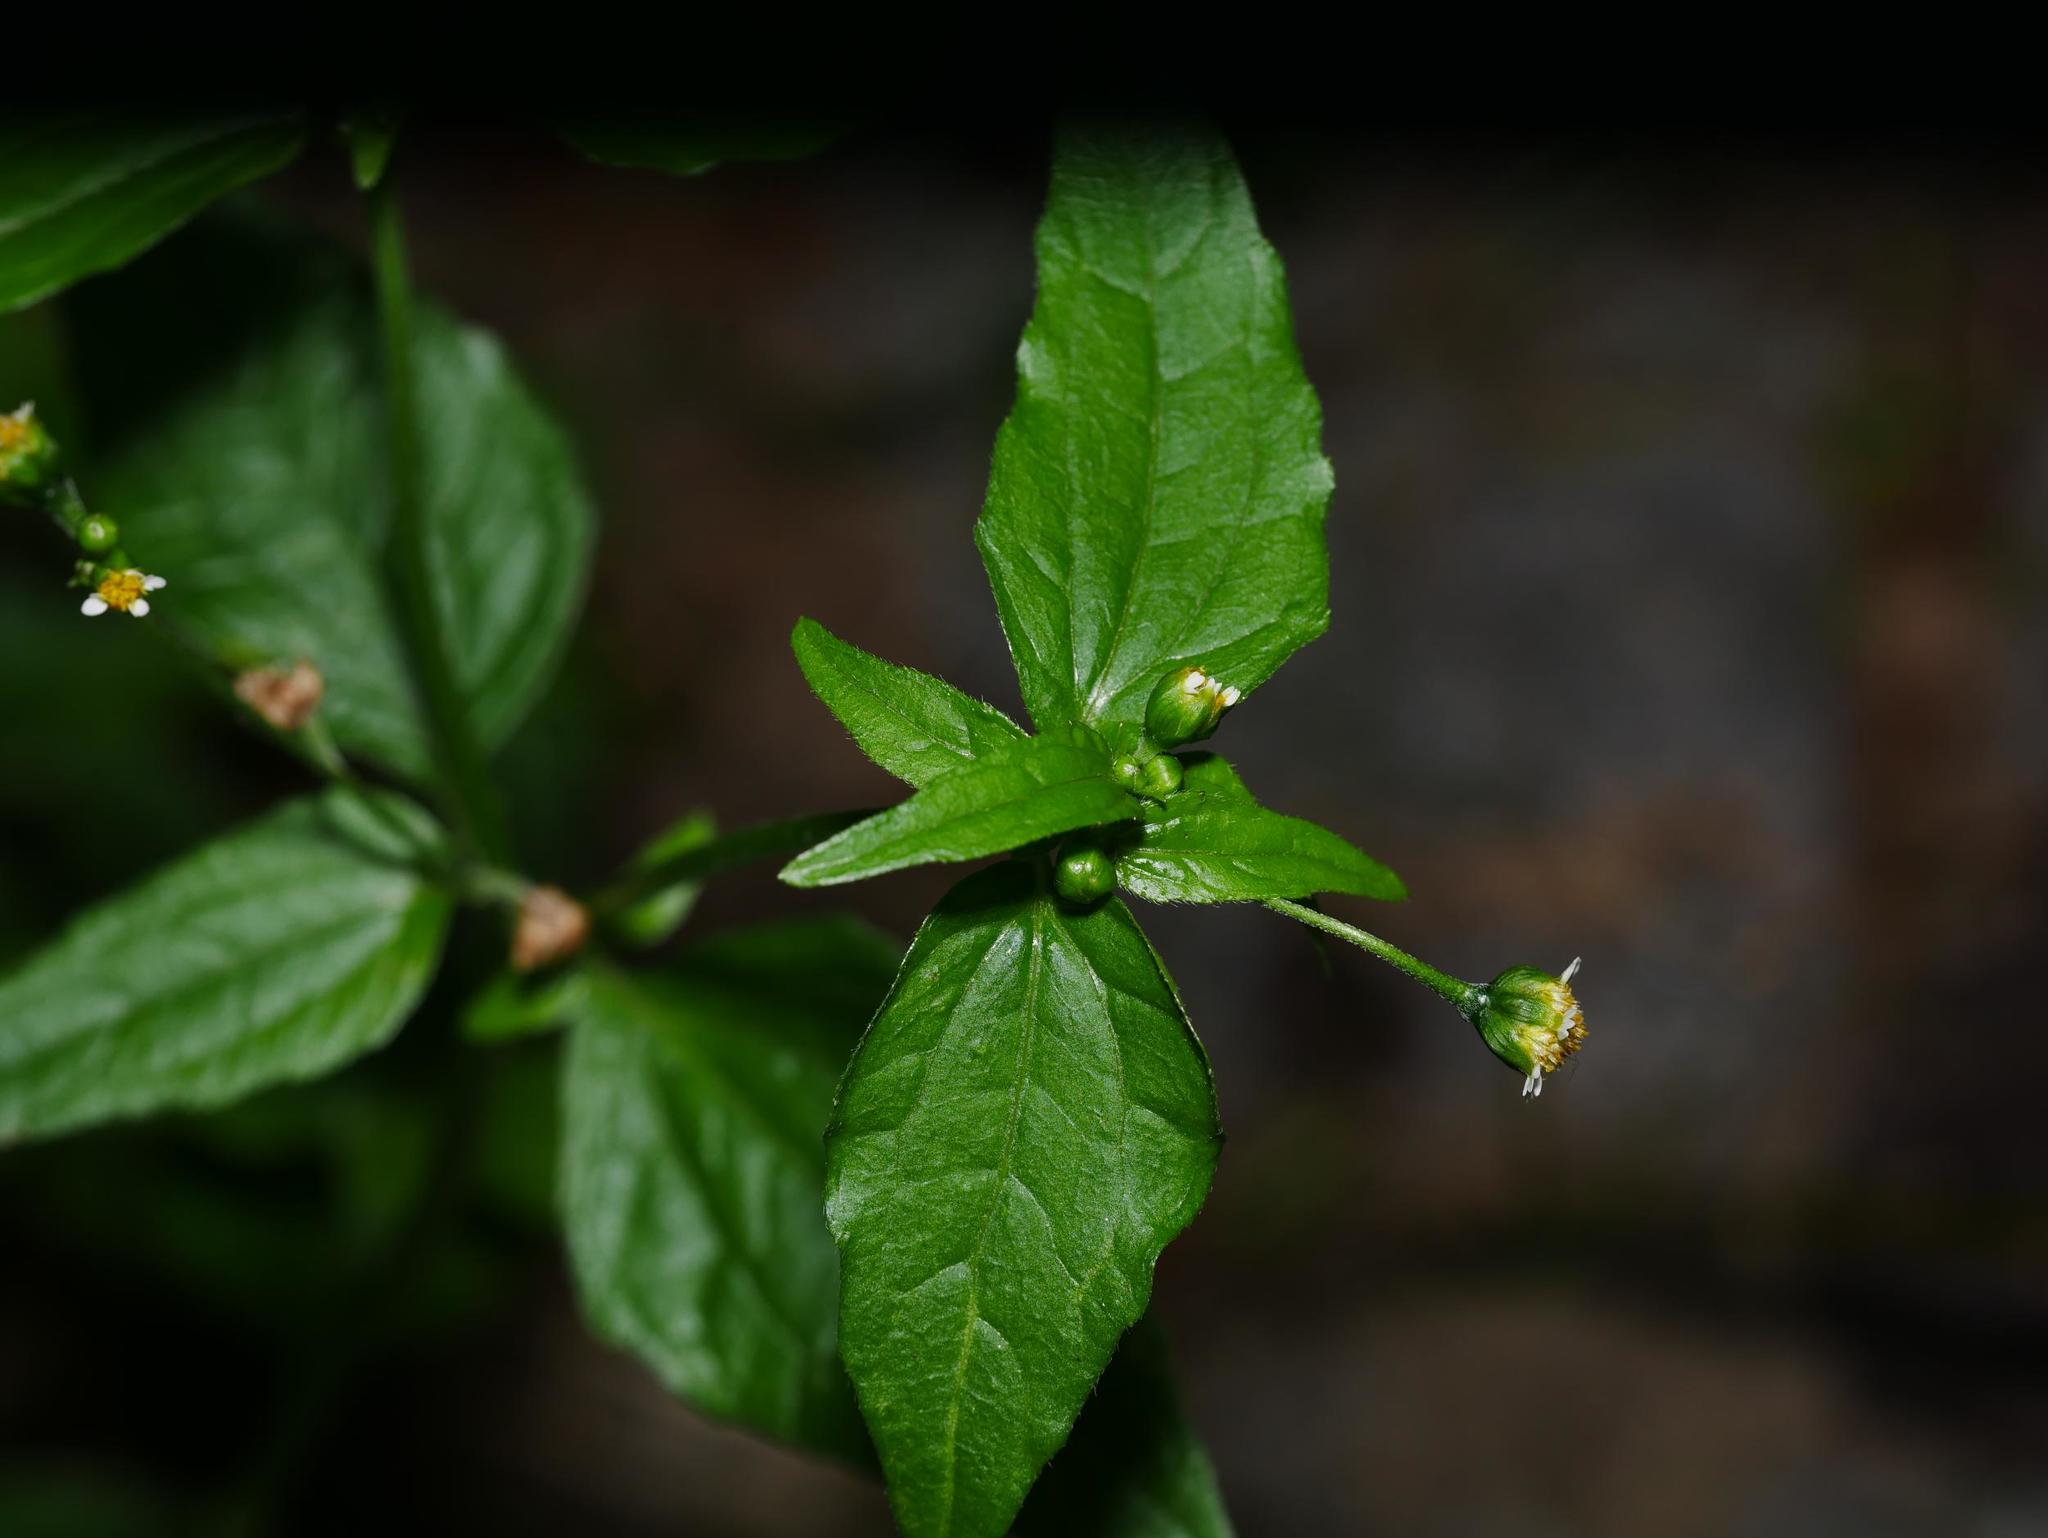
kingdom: Plantae
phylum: Tracheophyta
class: Magnoliopsida
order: Asterales
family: Asteraceae
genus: Galinsoga
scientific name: Galinsoga parviflora
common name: Gallant soldier
